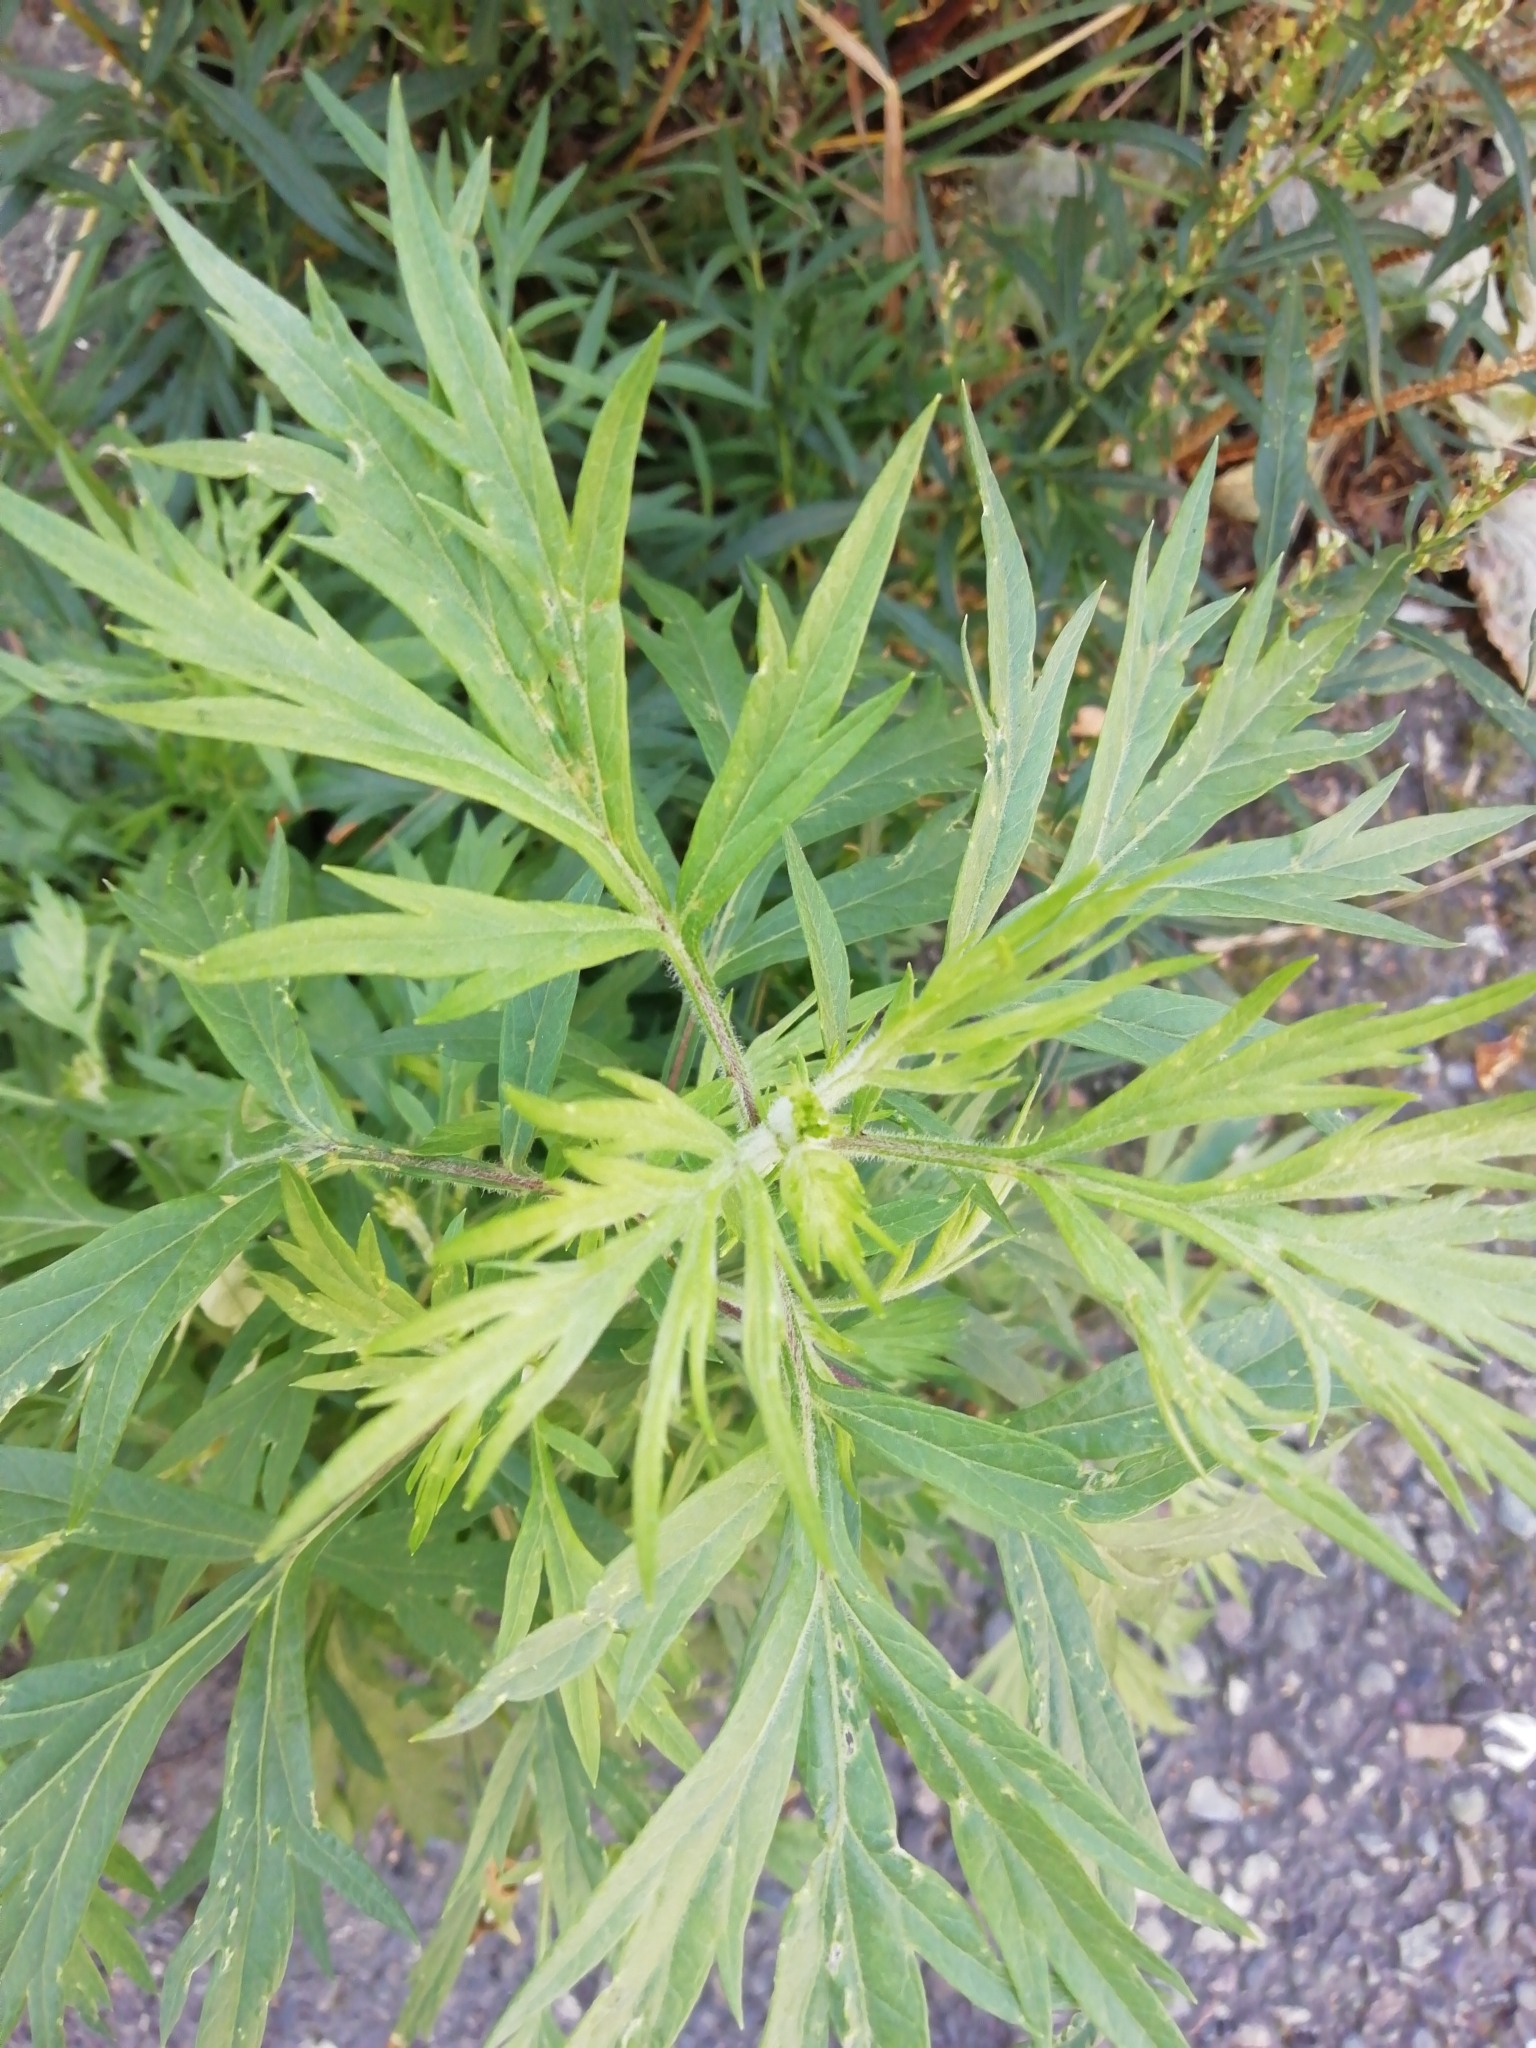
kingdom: Plantae
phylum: Tracheophyta
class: Magnoliopsida
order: Asterales
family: Asteraceae
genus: Artemisia
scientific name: Artemisia vulgaris
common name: Mugwort
